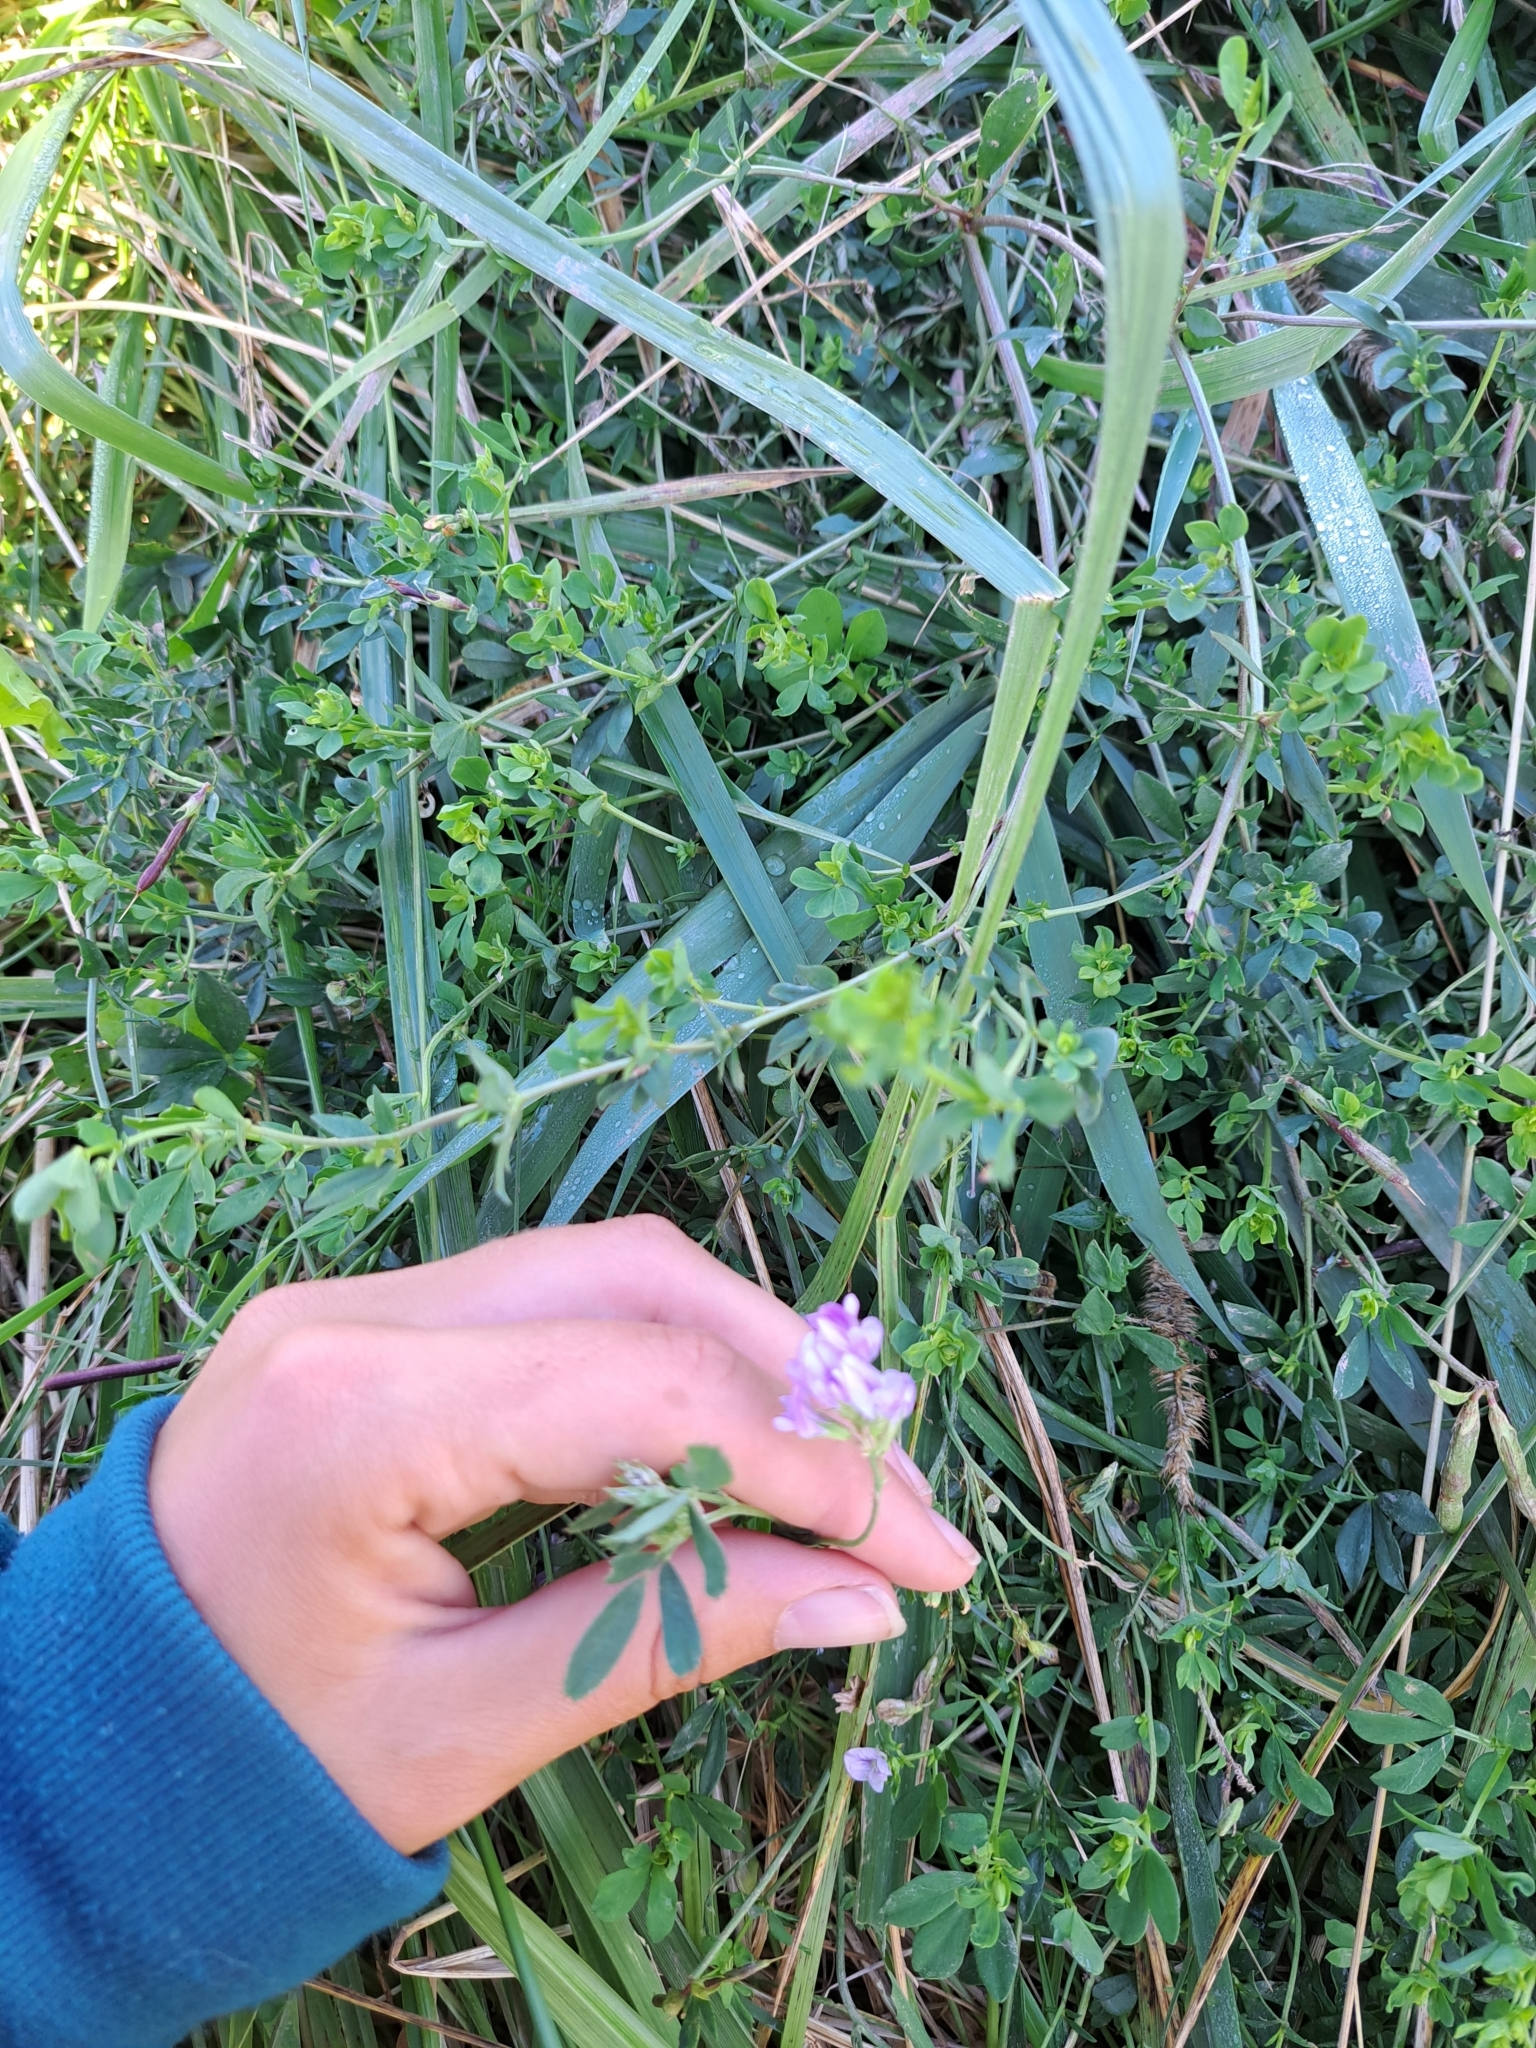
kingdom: Plantae
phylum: Tracheophyta
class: Magnoliopsida
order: Fabales
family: Fabaceae
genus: Medicago
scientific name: Medicago sativa
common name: Alfalfa
